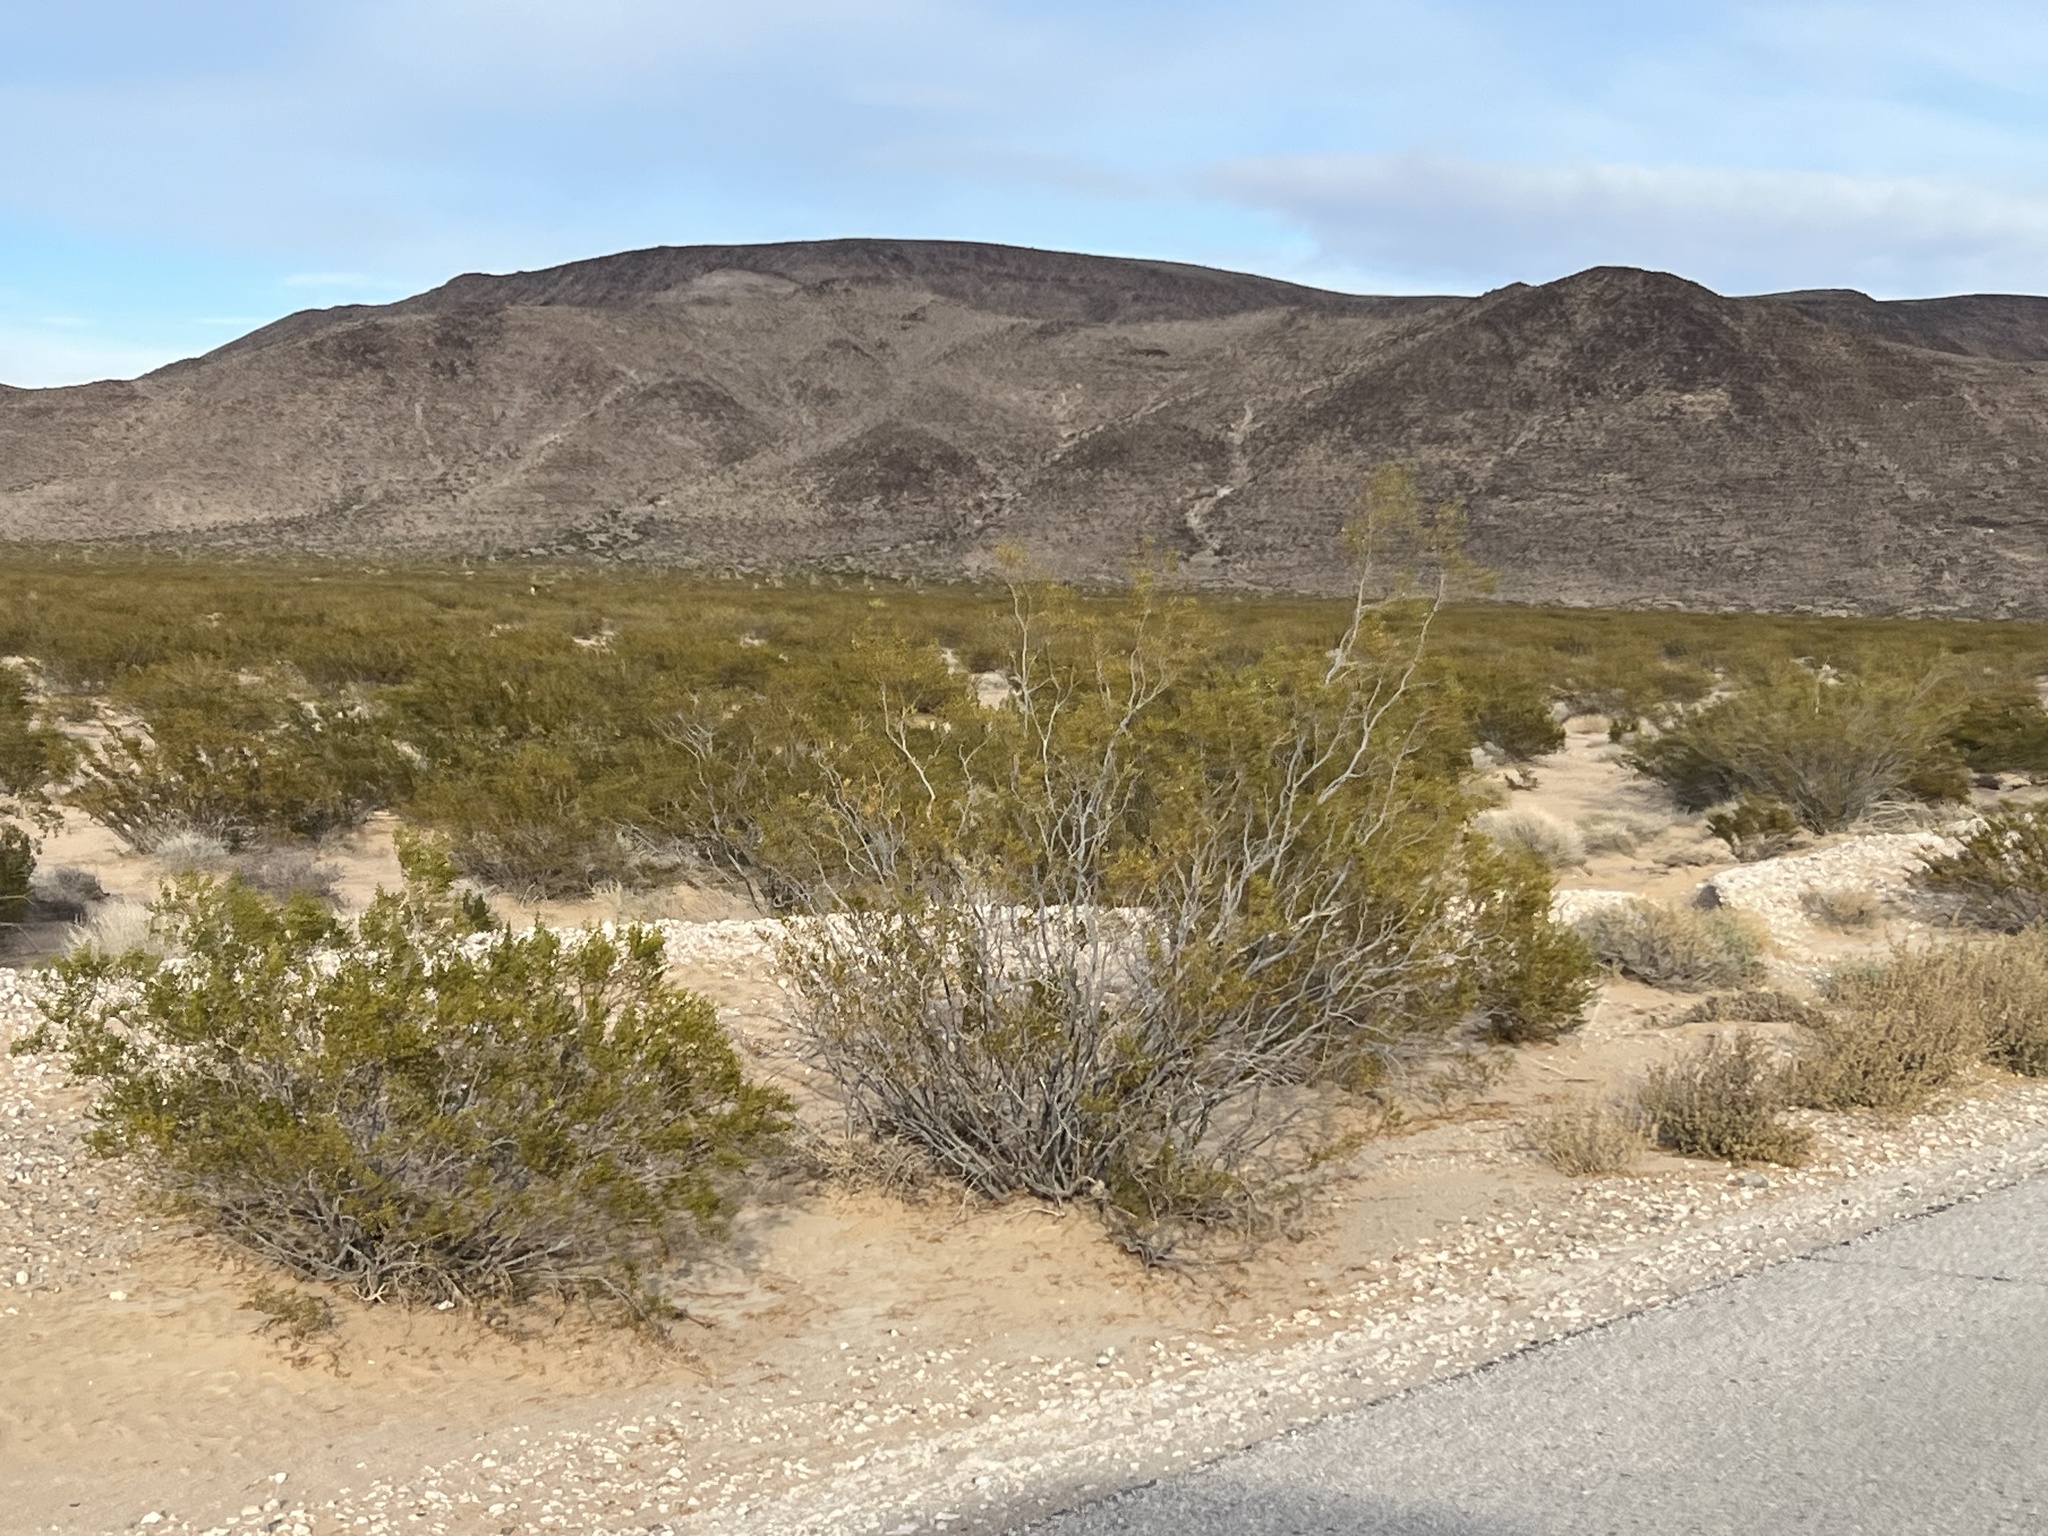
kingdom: Plantae
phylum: Tracheophyta
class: Magnoliopsida
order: Zygophyllales
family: Zygophyllaceae
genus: Larrea
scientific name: Larrea tridentata
